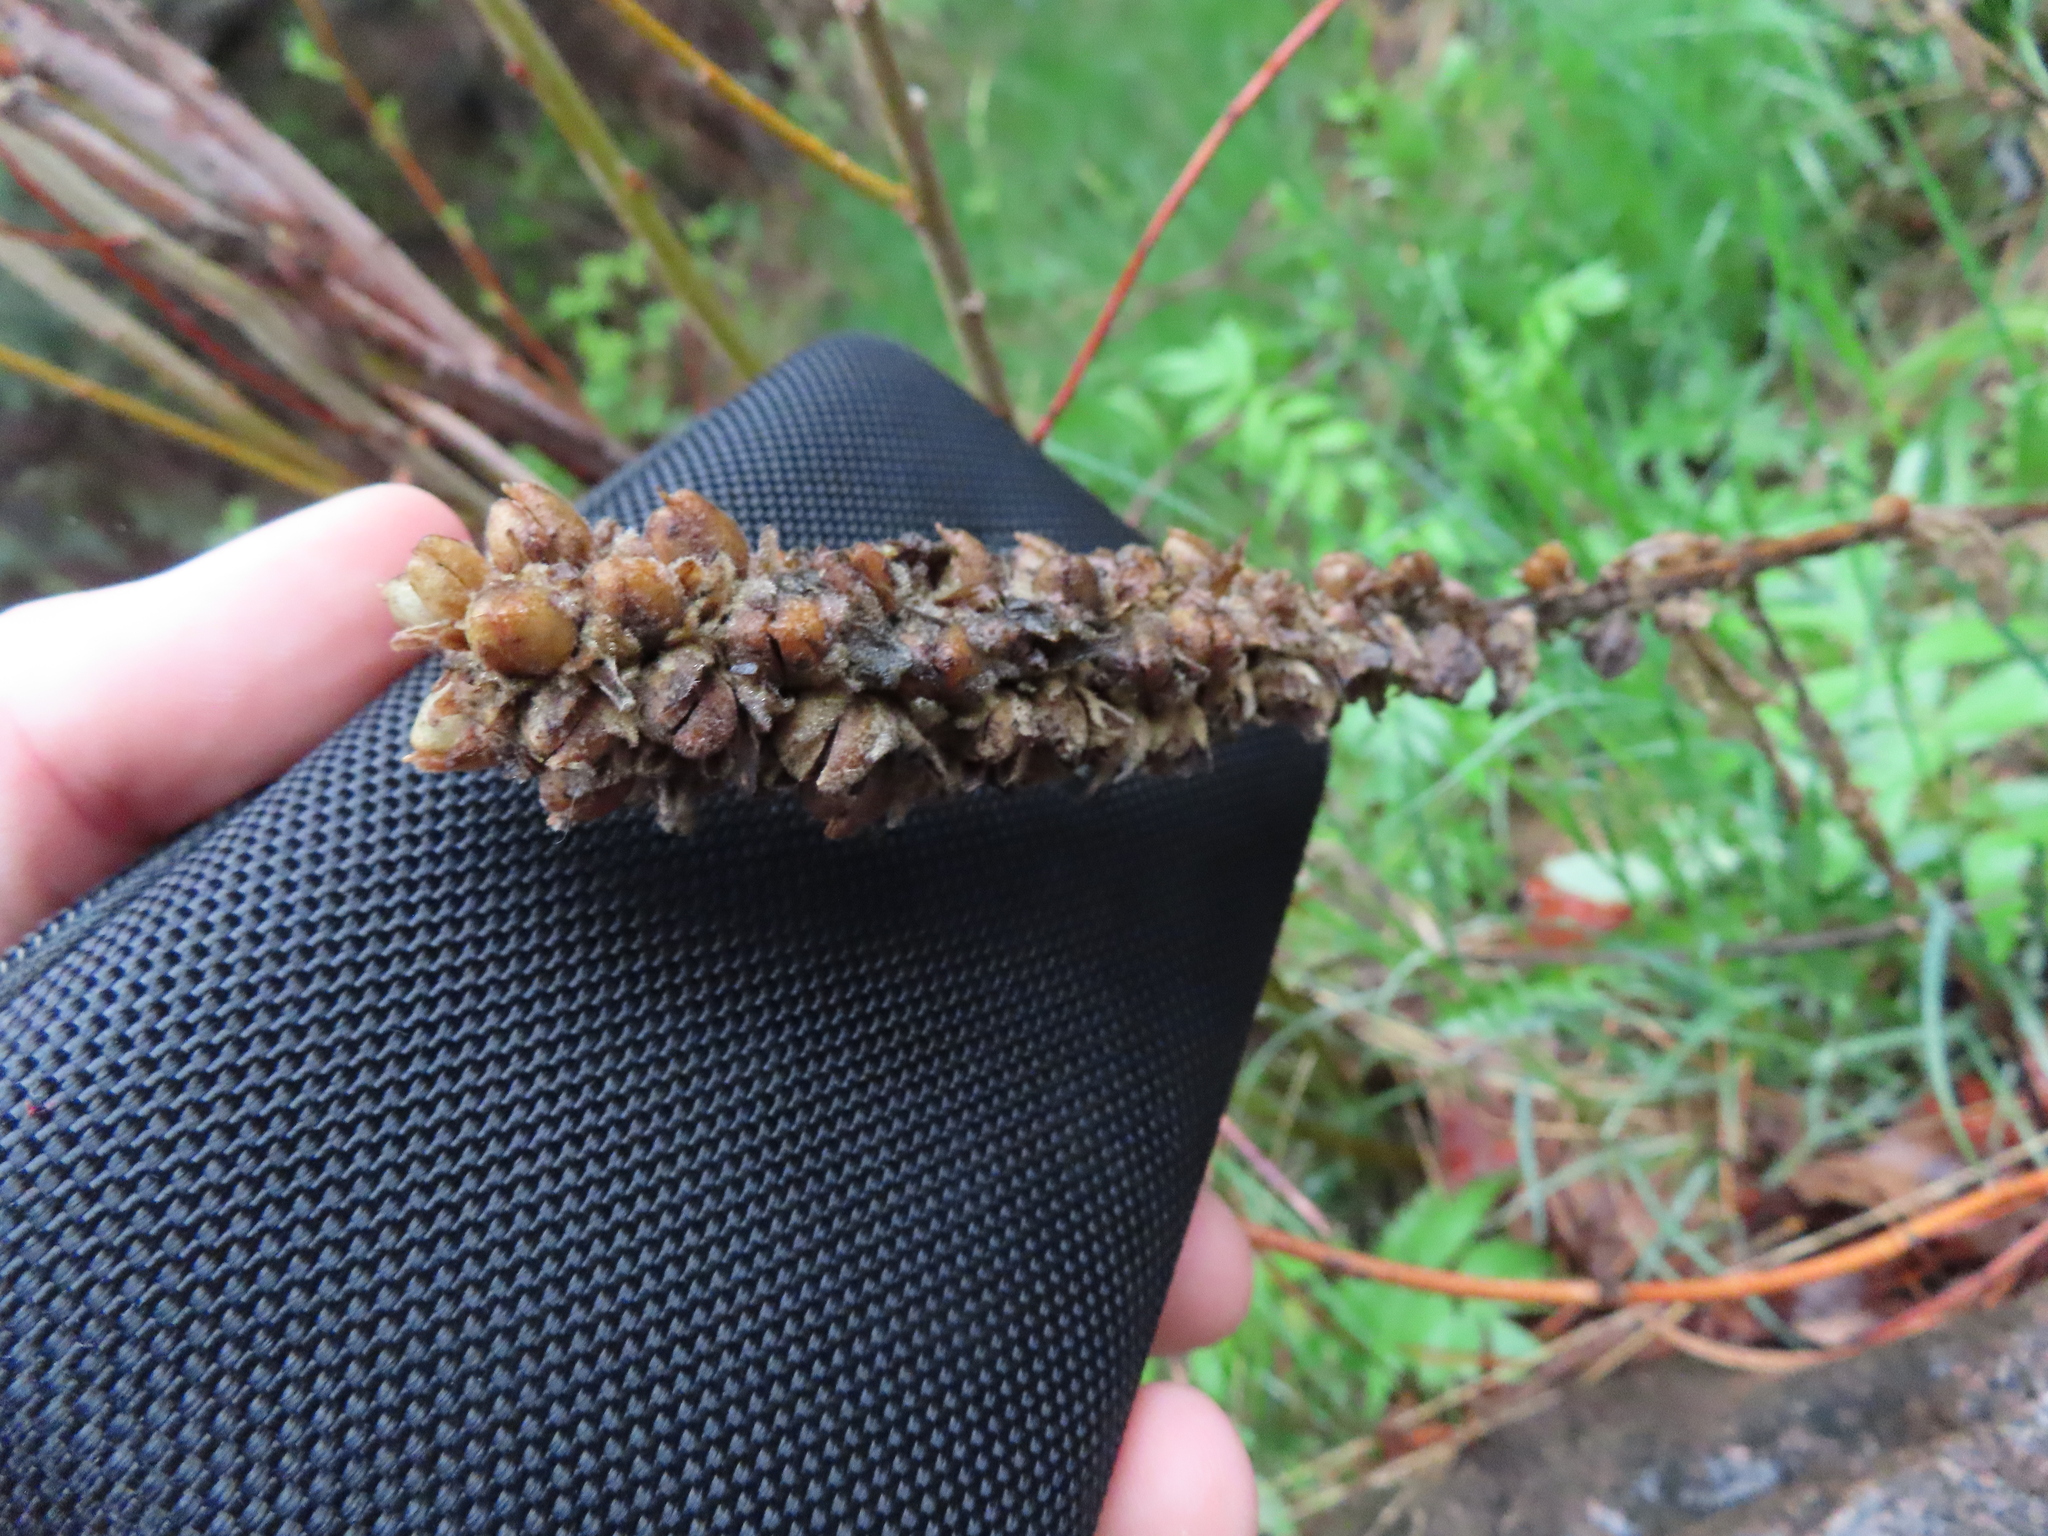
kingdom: Plantae
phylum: Tracheophyta
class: Magnoliopsida
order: Lamiales
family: Scrophulariaceae
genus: Verbascum
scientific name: Verbascum thapsus
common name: Common mullein
